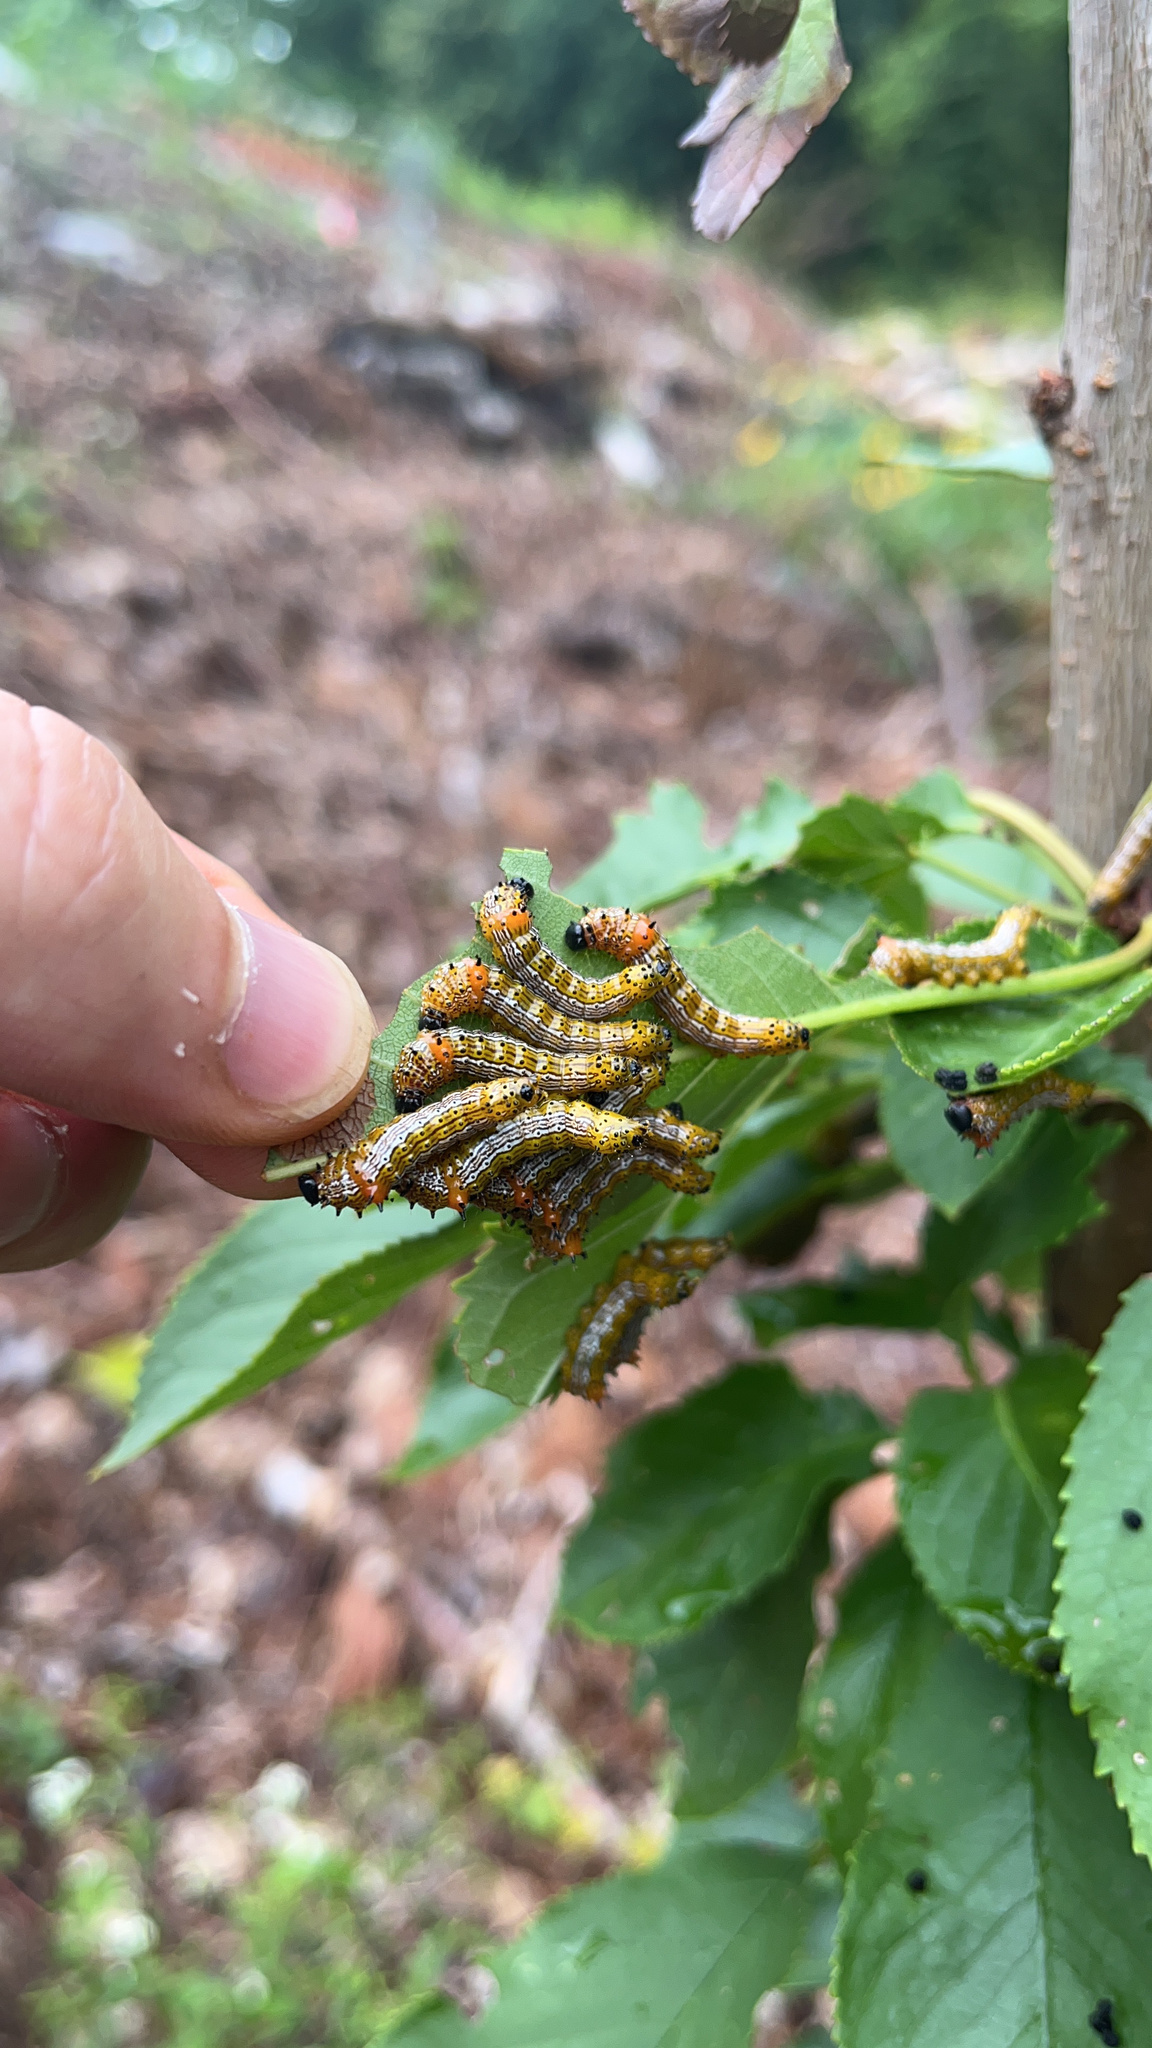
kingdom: Animalia
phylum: Arthropoda
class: Insecta
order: Lepidoptera
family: Notodontidae
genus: Schizura
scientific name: Schizura
